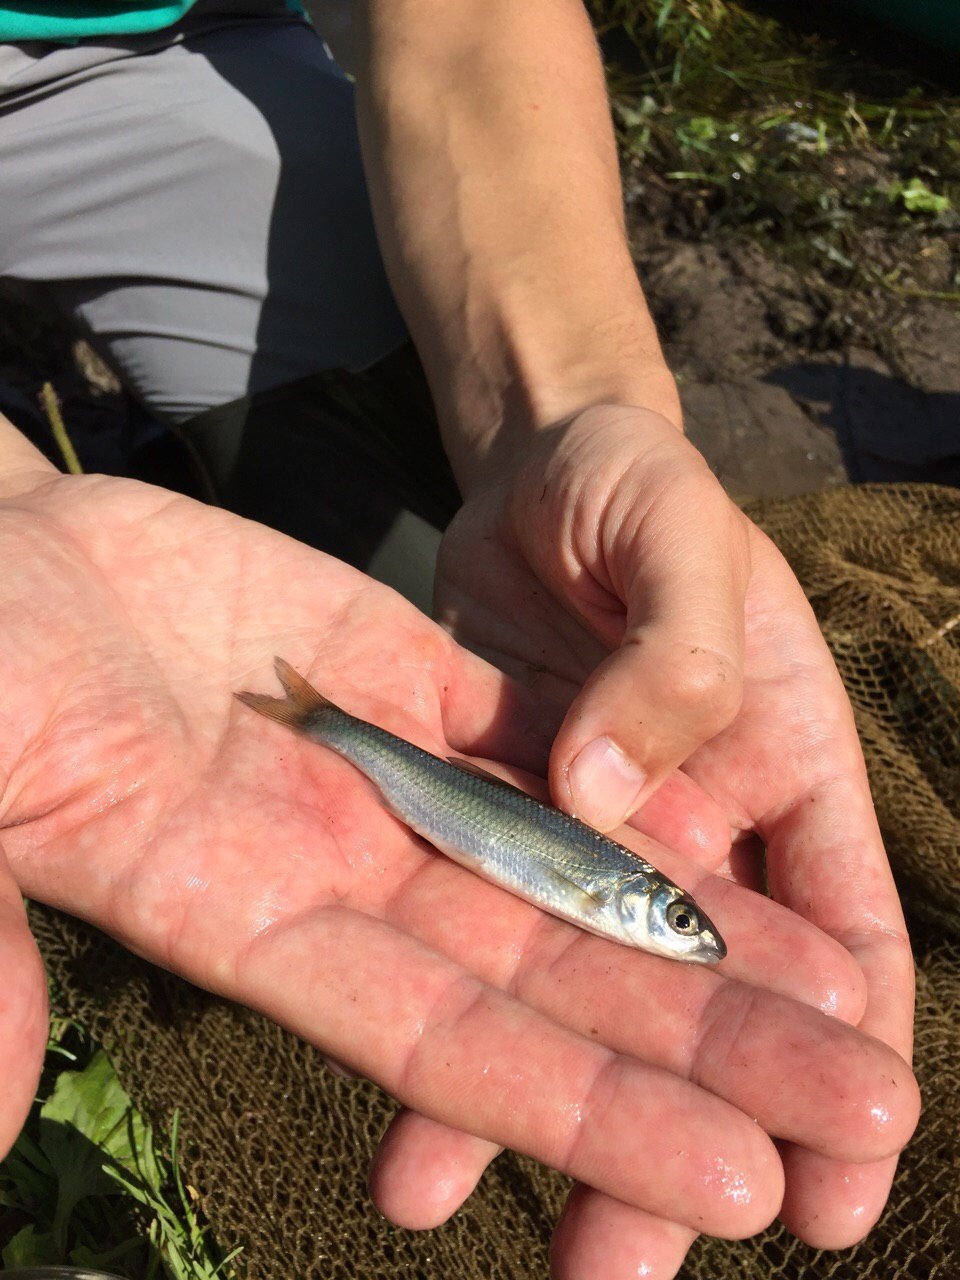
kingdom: Animalia
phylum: Chordata
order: Cypriniformes
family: Cyprinidae
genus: Leuciscus
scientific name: Leuciscus leuciscus
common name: Dace
